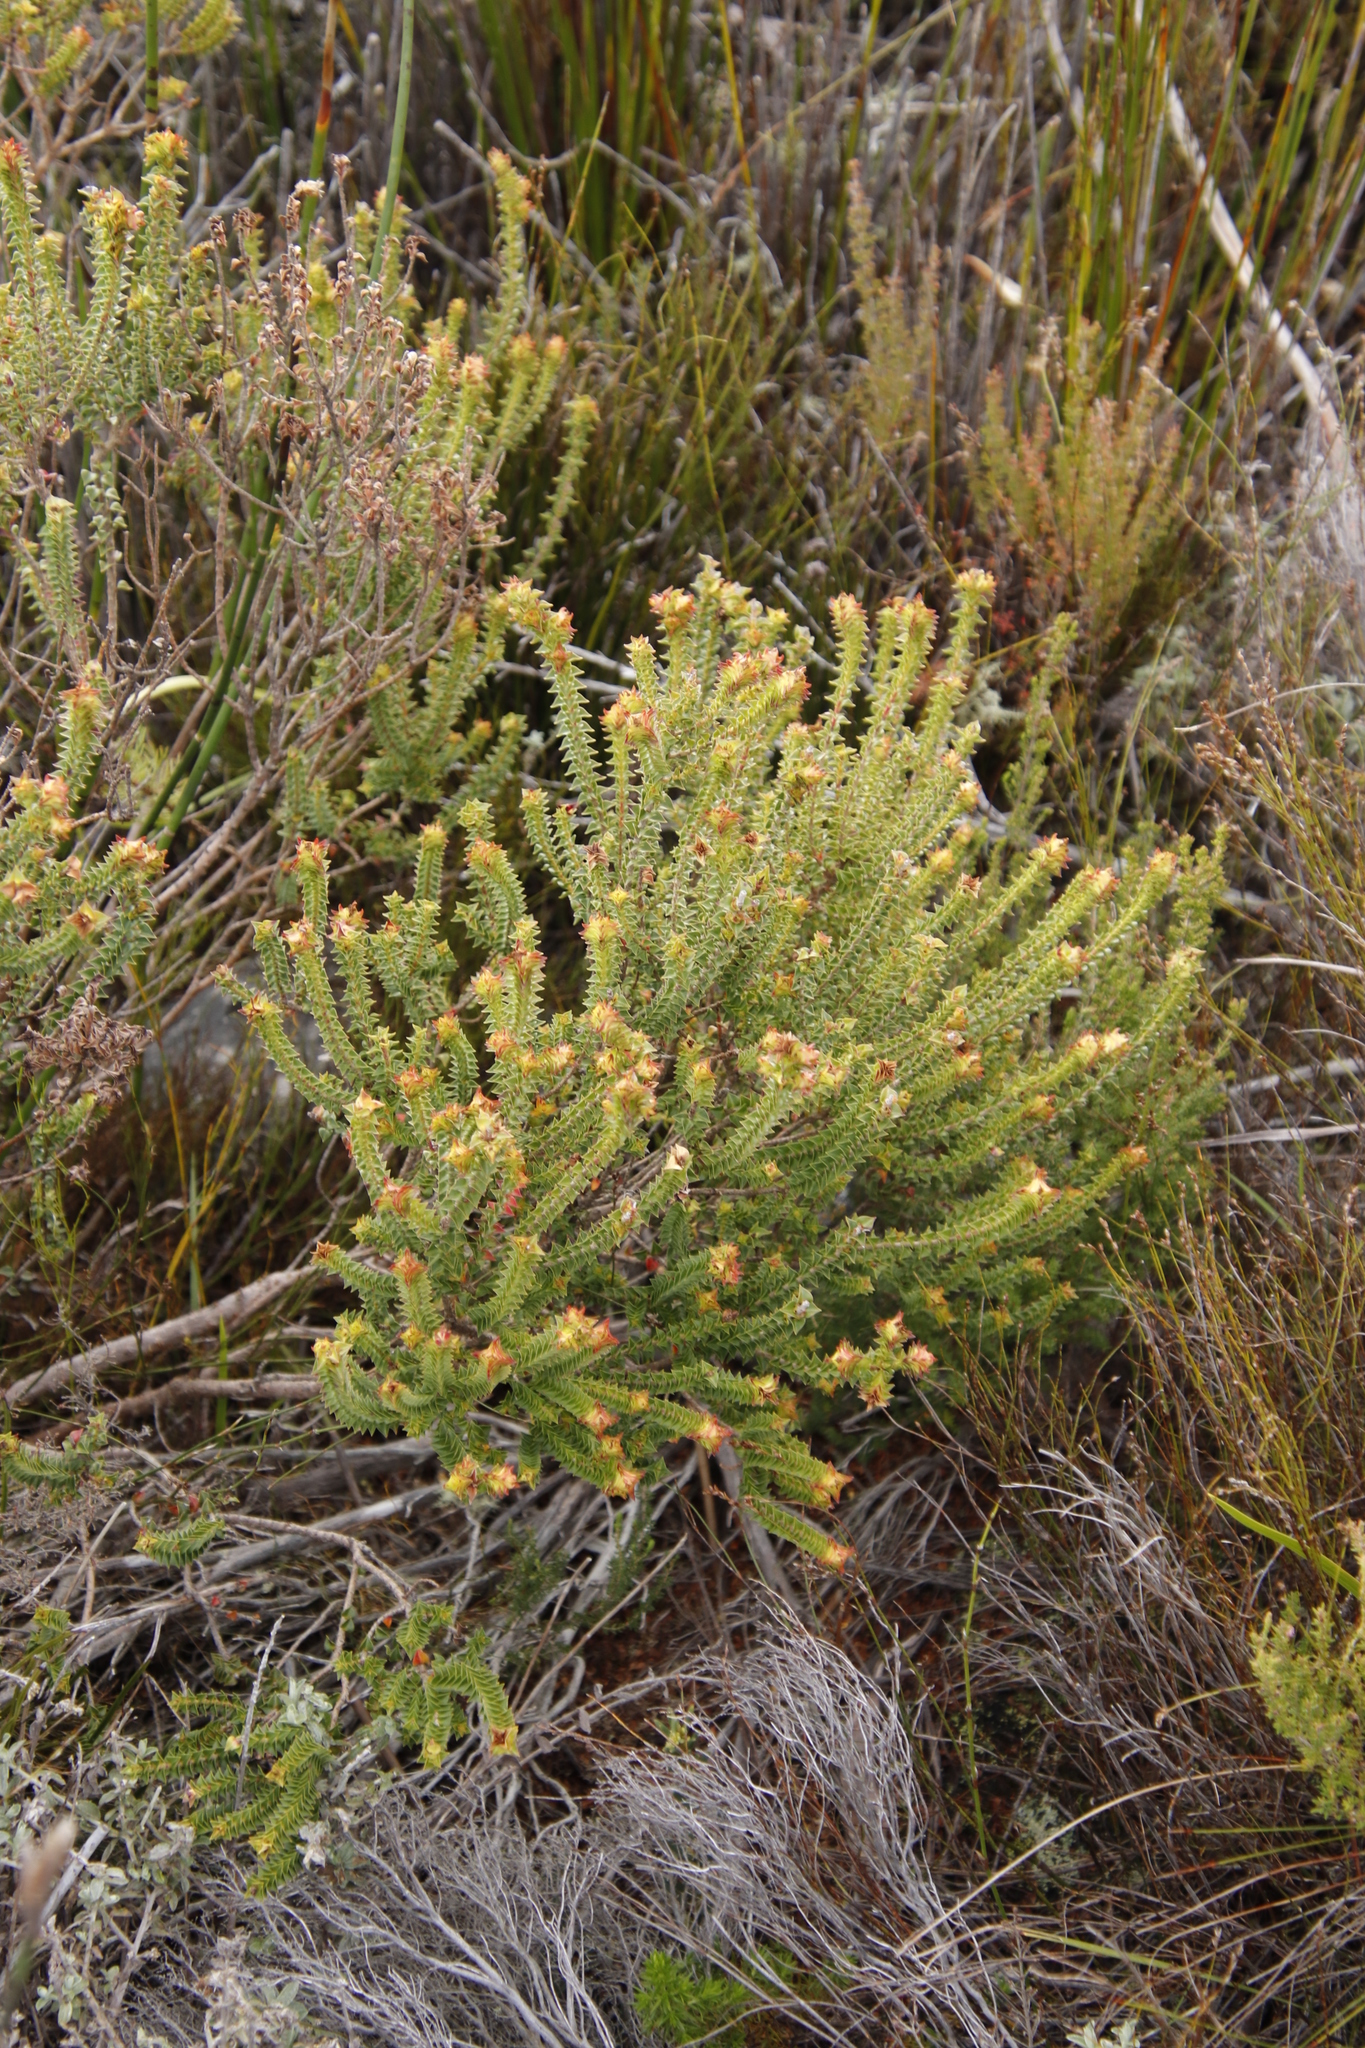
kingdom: Plantae
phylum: Tracheophyta
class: Magnoliopsida
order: Myrtales
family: Penaeaceae
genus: Penaea
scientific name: Penaea mucronata
